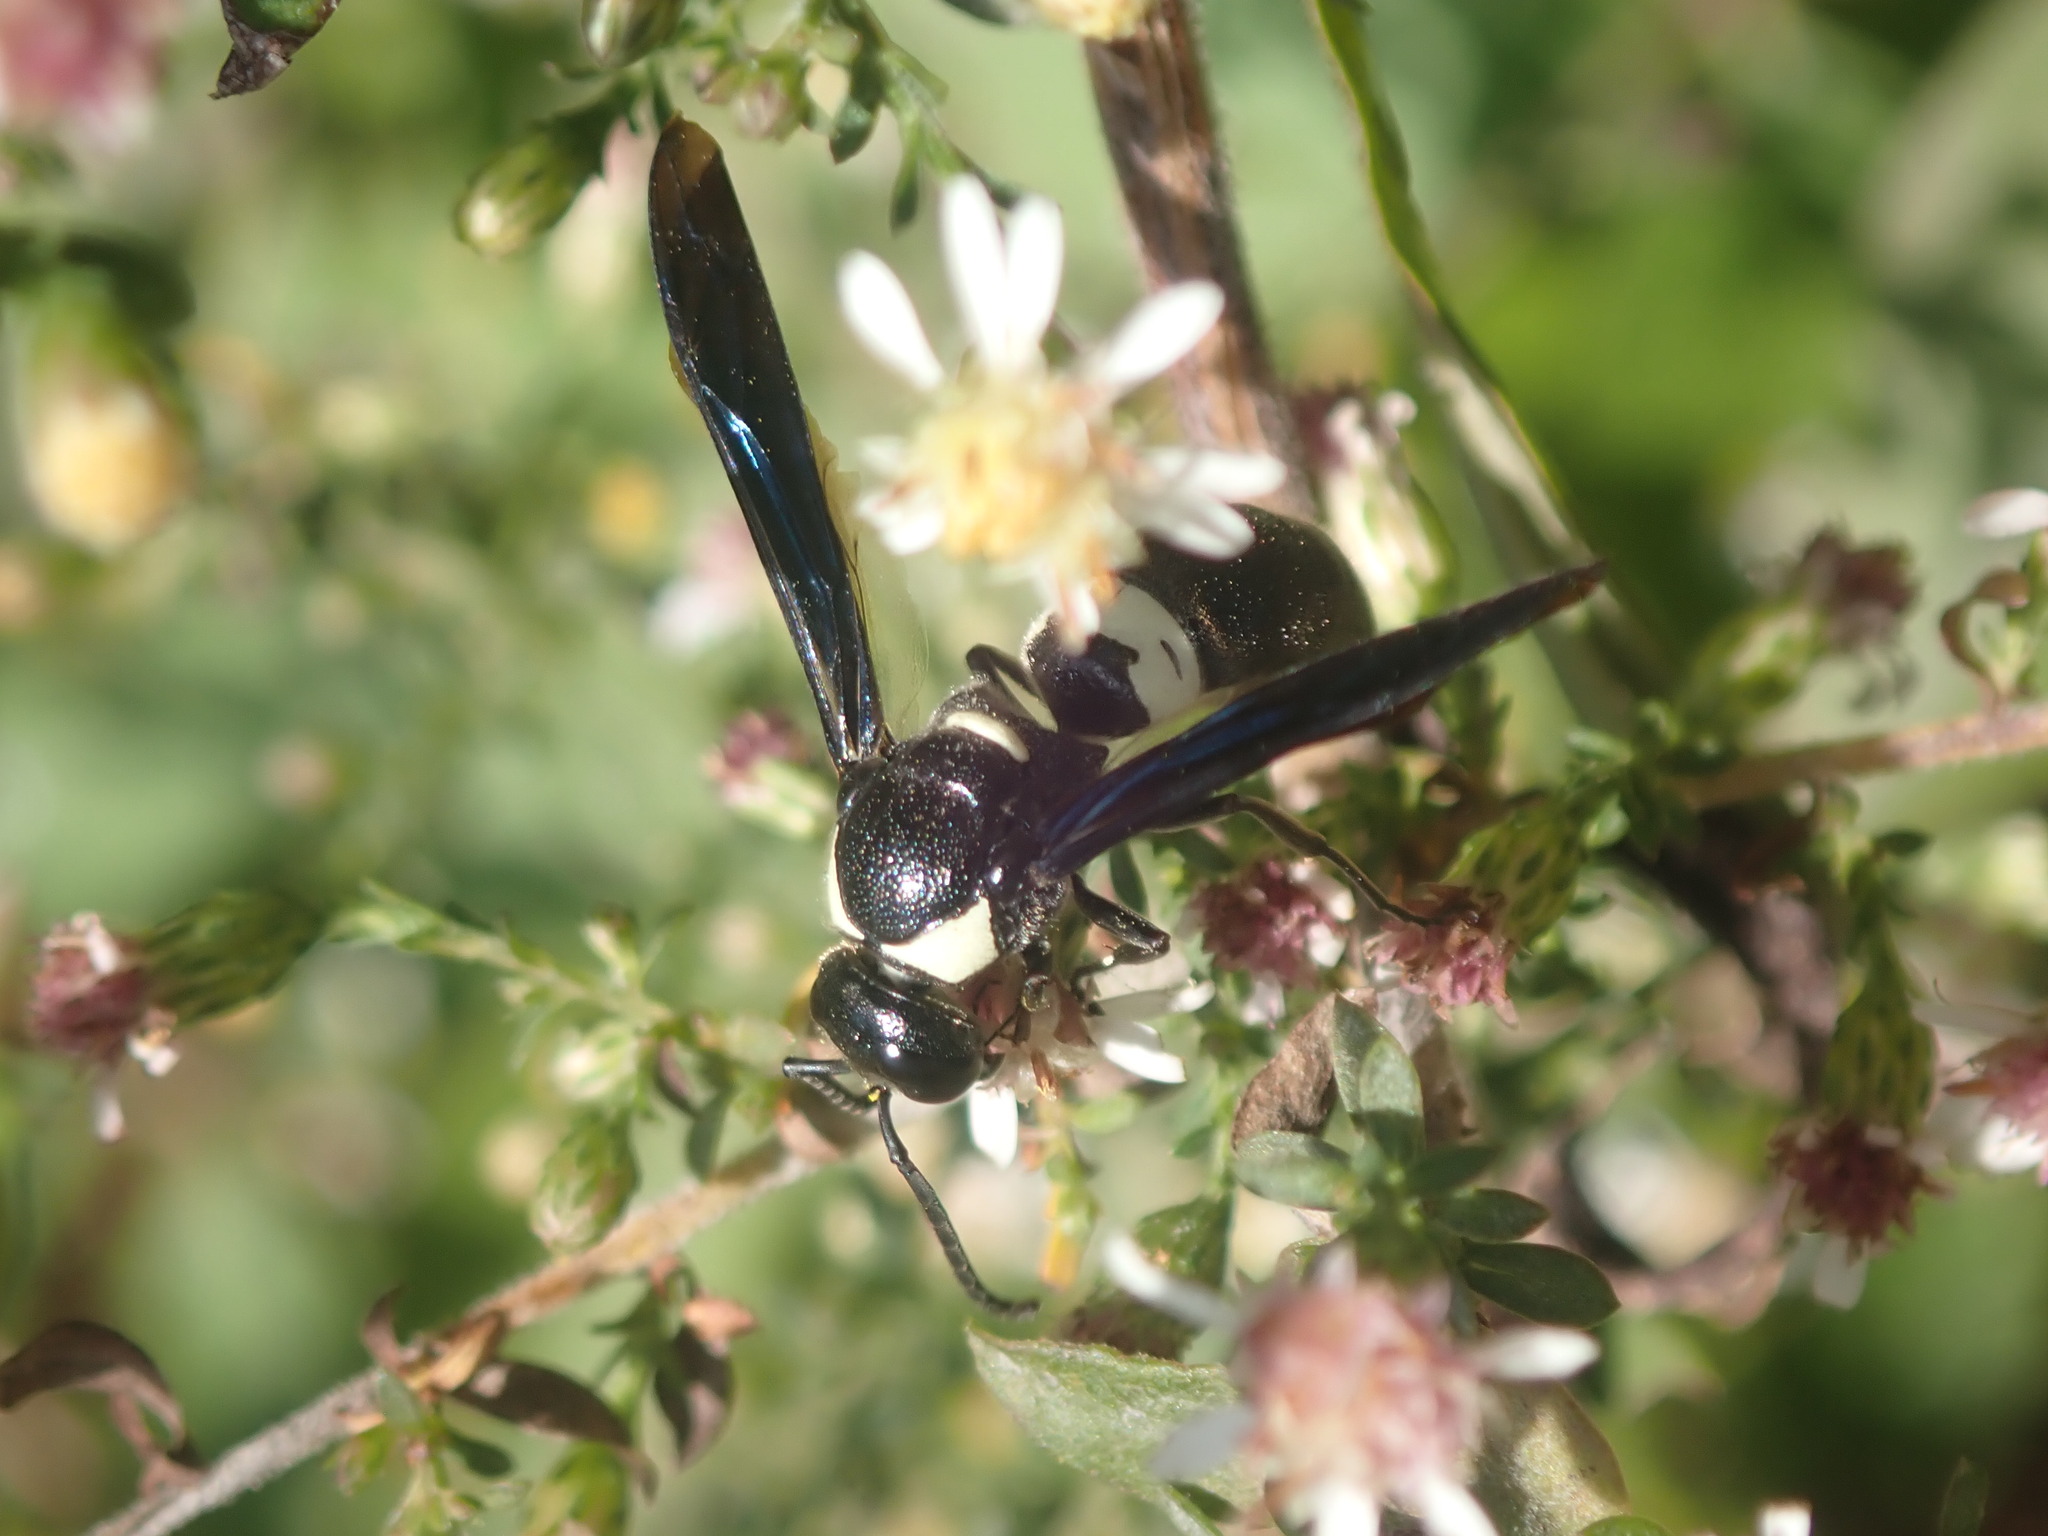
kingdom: Animalia
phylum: Arthropoda
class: Insecta
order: Hymenoptera
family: Eumenidae
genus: Monobia
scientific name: Monobia quadridens
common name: Four-toothed mason wasp
